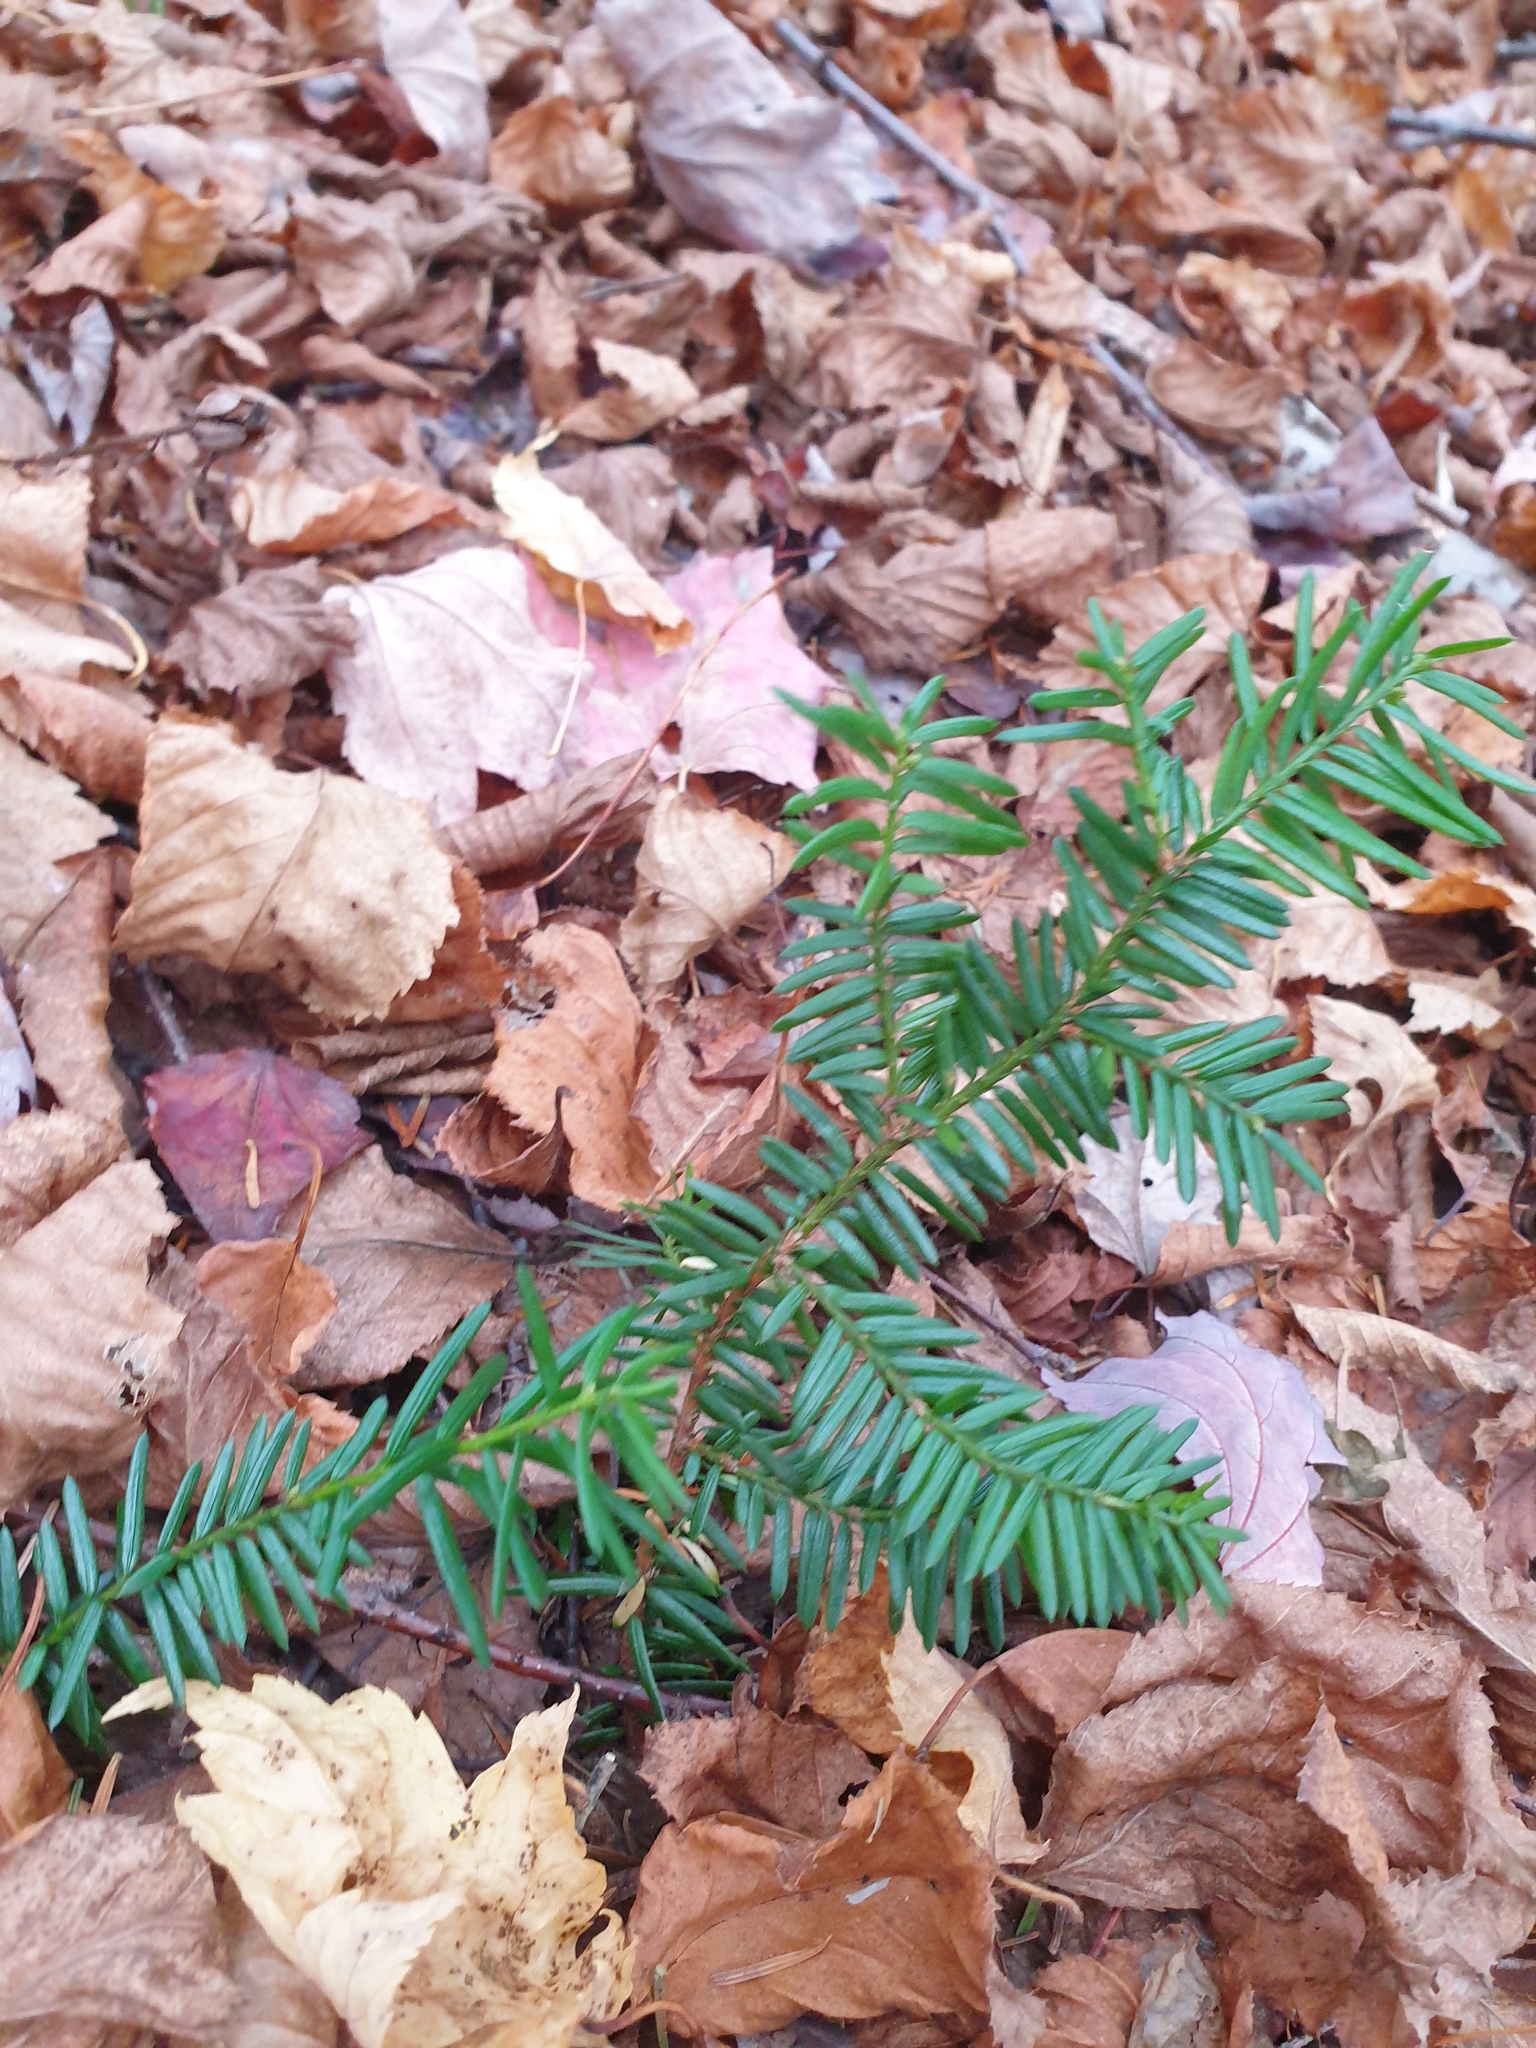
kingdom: Plantae
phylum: Tracheophyta
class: Pinopsida
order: Pinales
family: Taxaceae
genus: Taxus
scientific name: Taxus canadensis
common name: American yew
